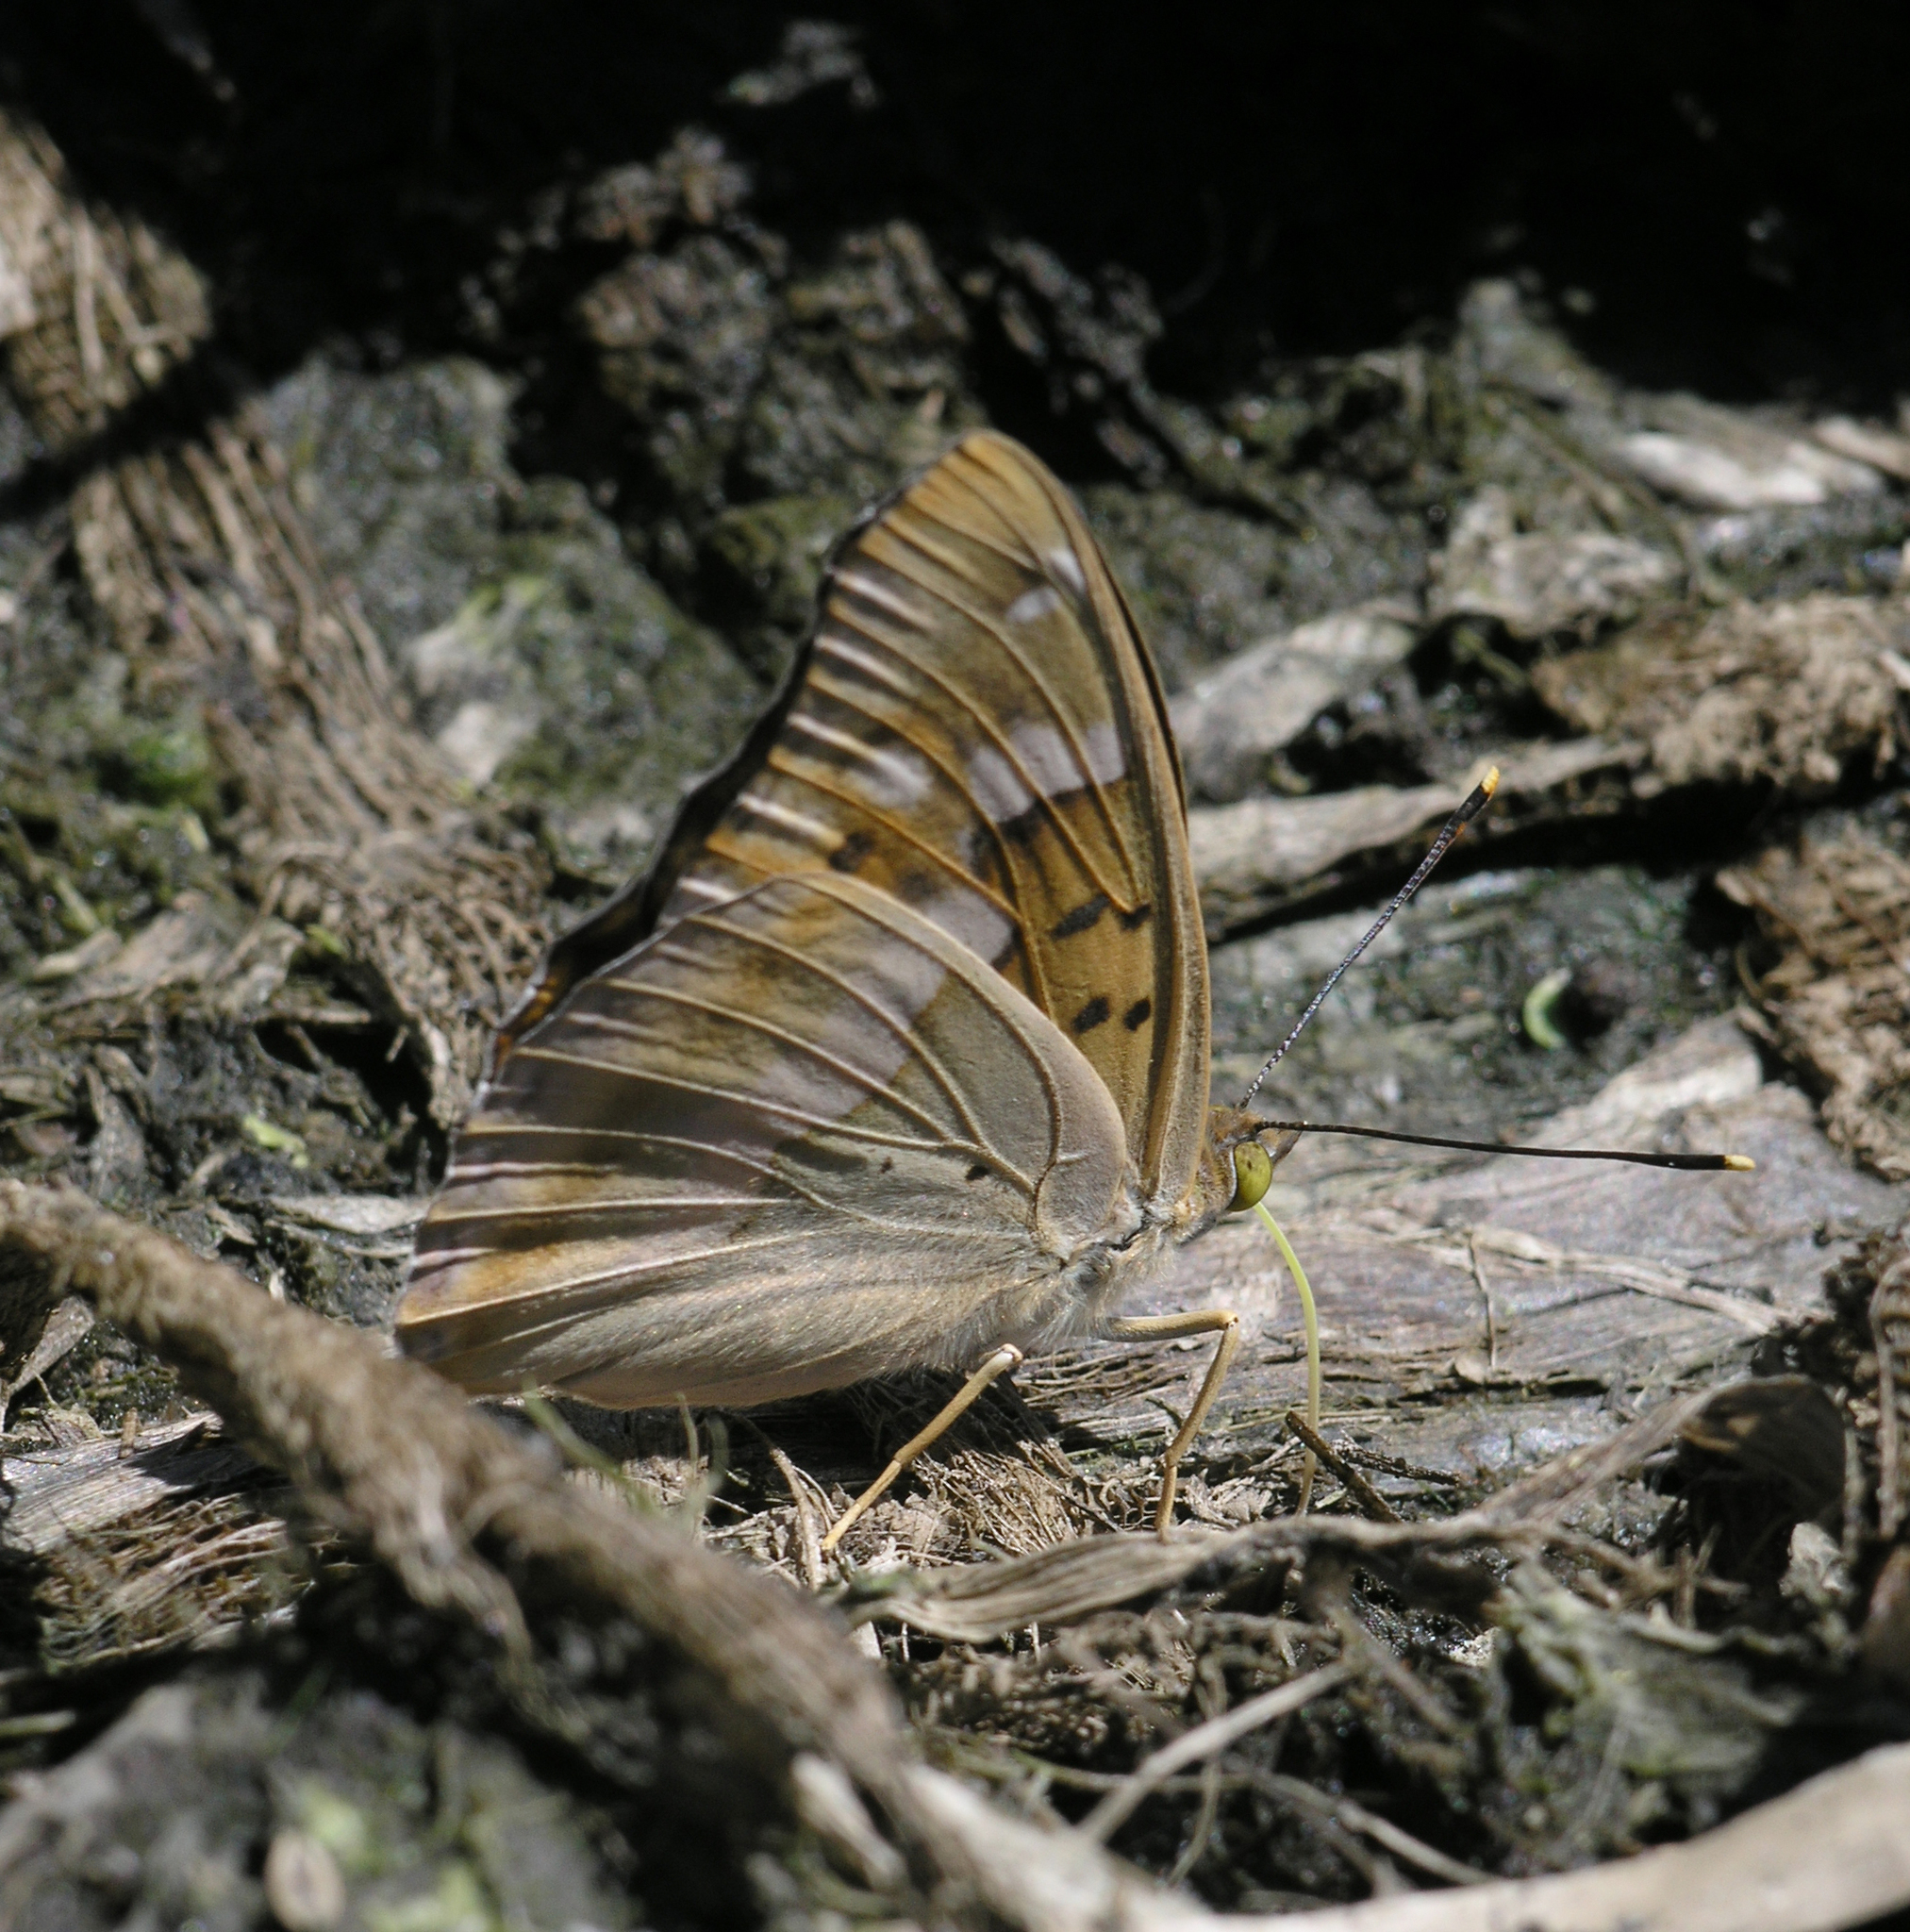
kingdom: Animalia
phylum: Arthropoda
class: Insecta
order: Lepidoptera
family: Nymphalidae
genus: Apatura
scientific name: Apatura ilia
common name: Lesser purple emperor
